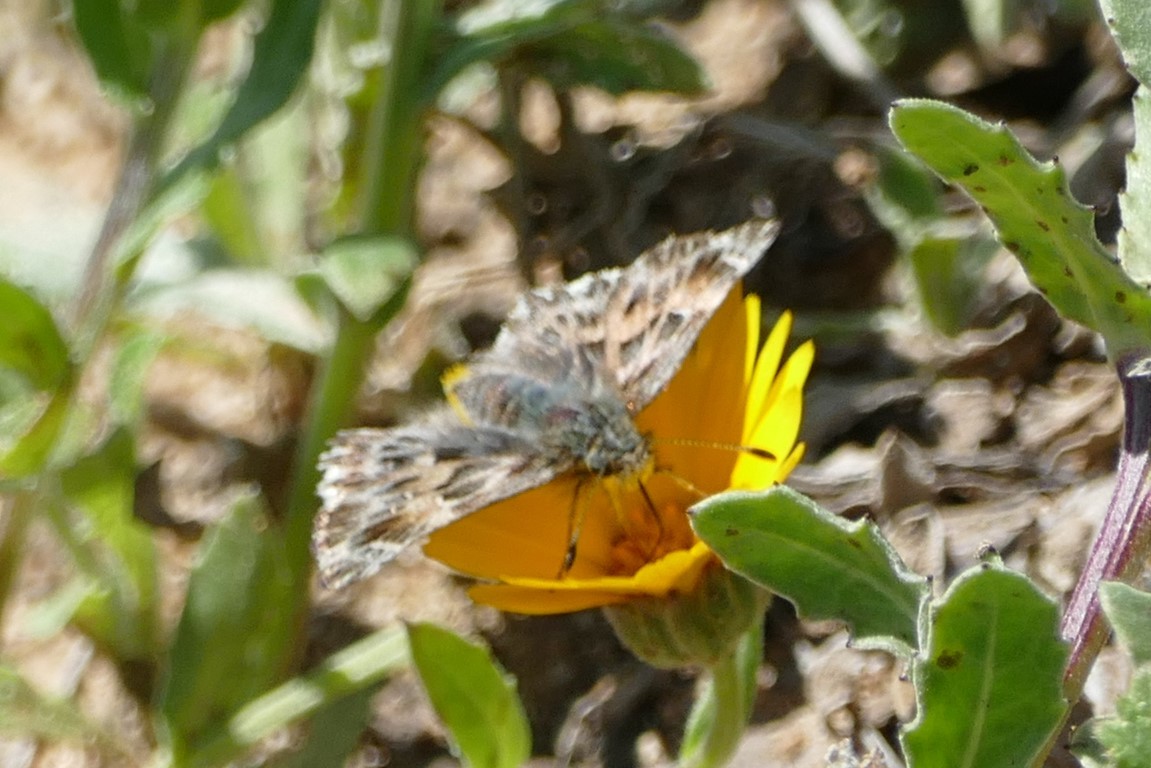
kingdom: Animalia
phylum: Arthropoda
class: Insecta
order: Lepidoptera
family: Hesperiidae
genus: Carcharodus
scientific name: Carcharodus alceae
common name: Mallow skipper
